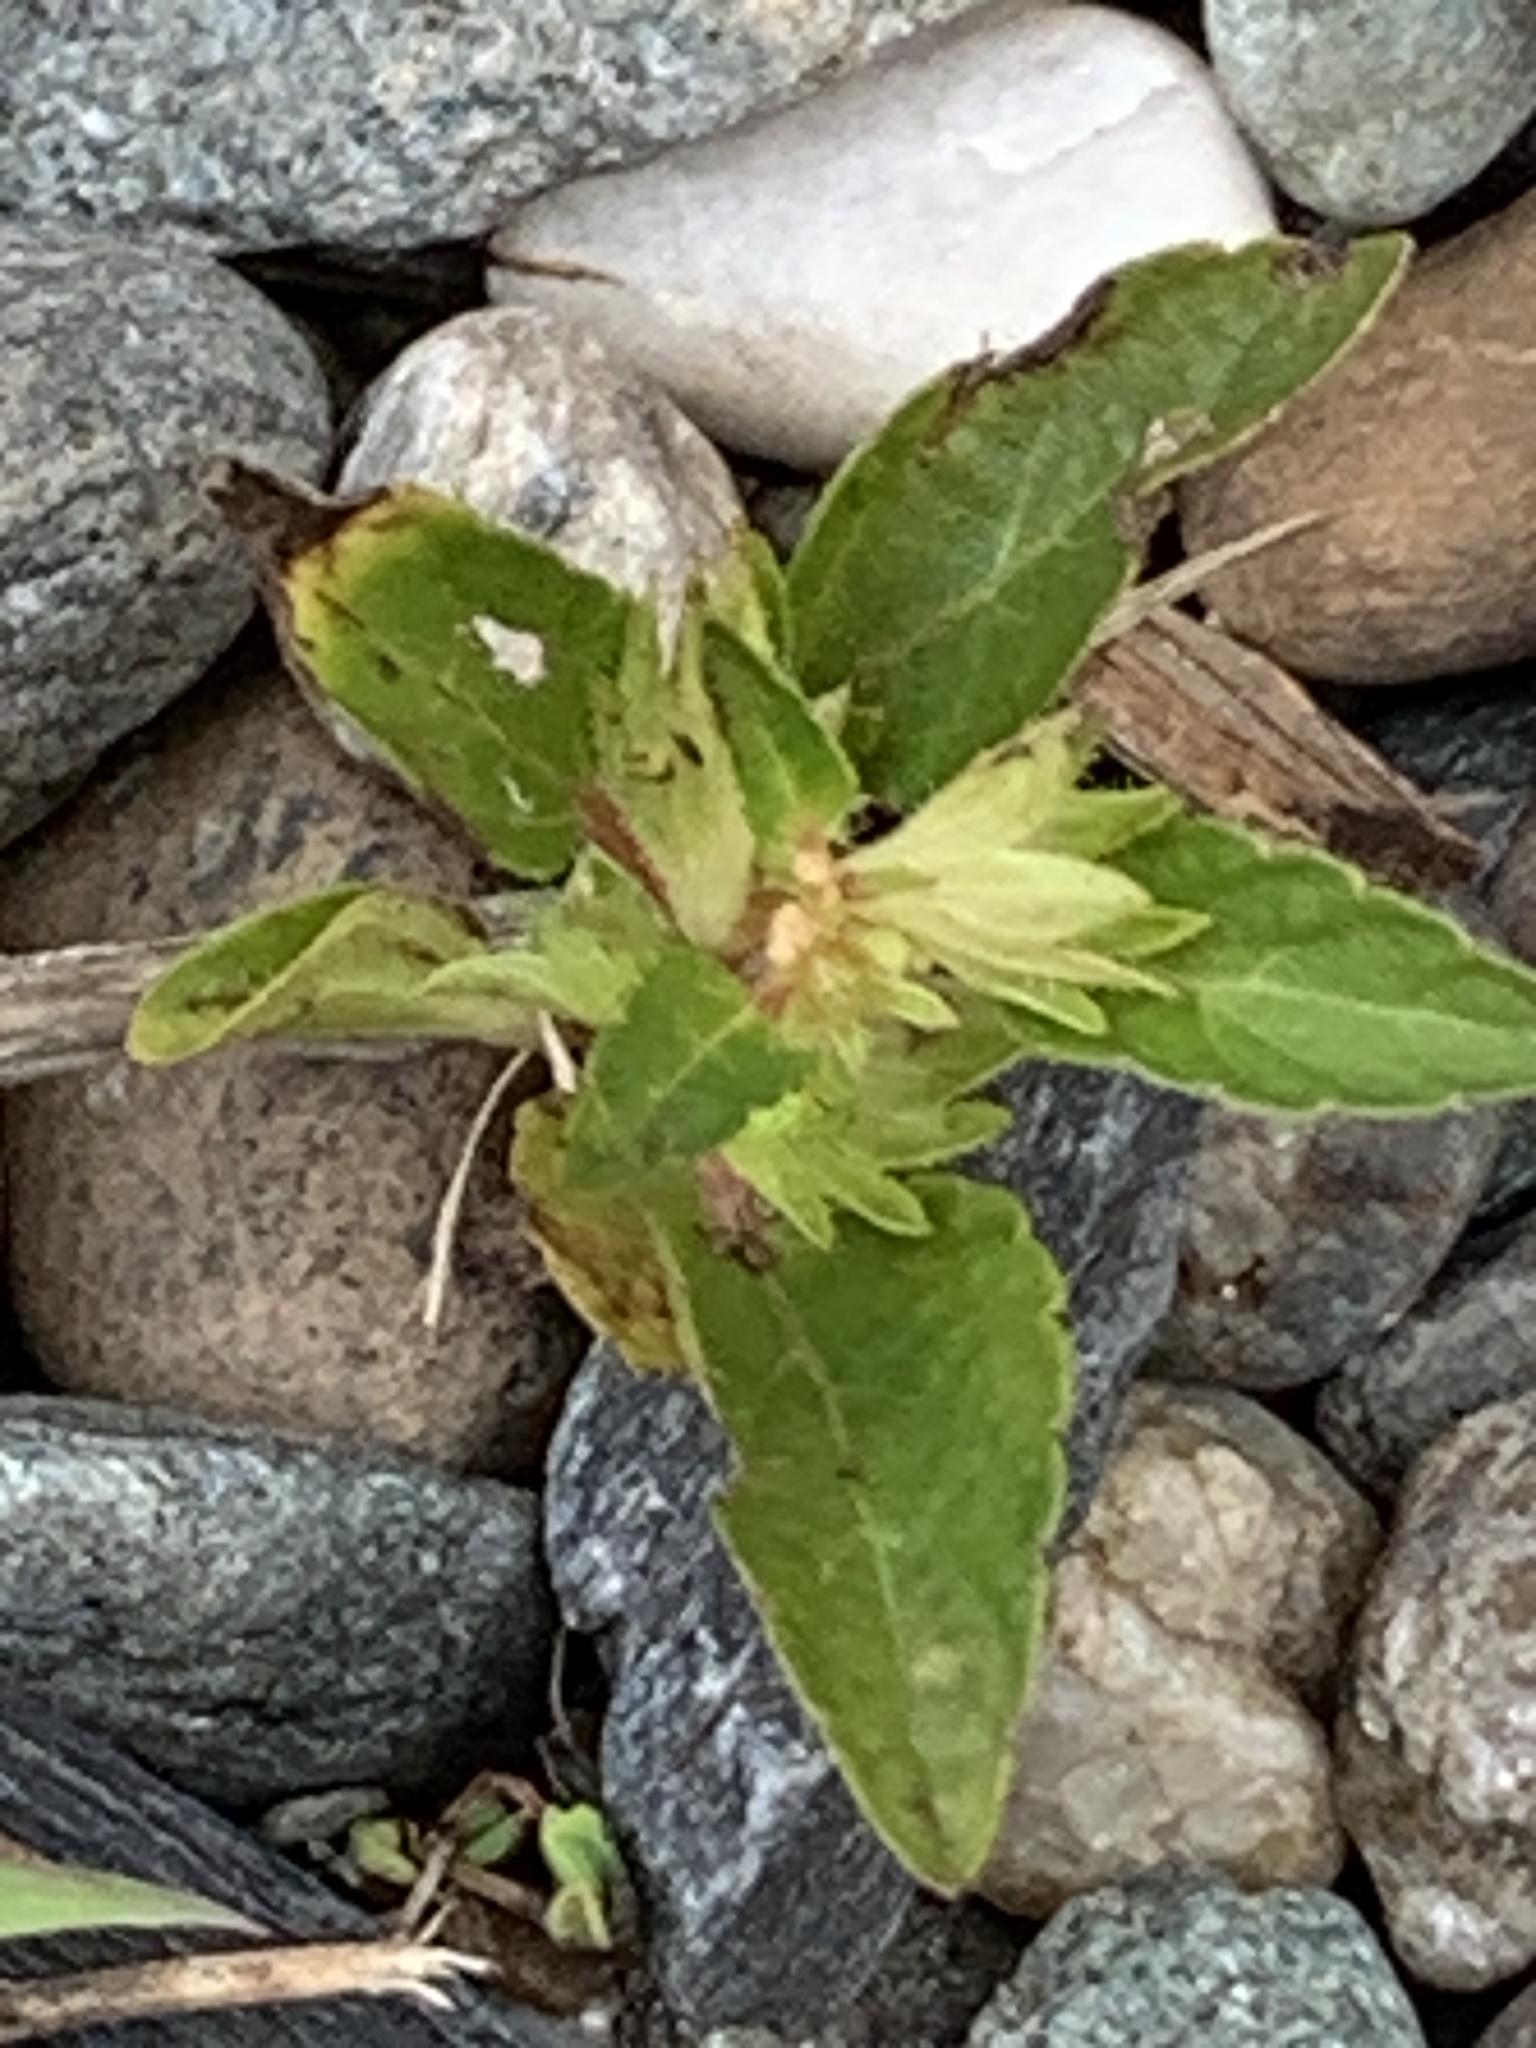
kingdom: Plantae
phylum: Tracheophyta
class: Magnoliopsida
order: Malpighiales
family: Euphorbiaceae
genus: Acalypha
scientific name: Acalypha rhomboidea
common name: Rhombic copperleaf
